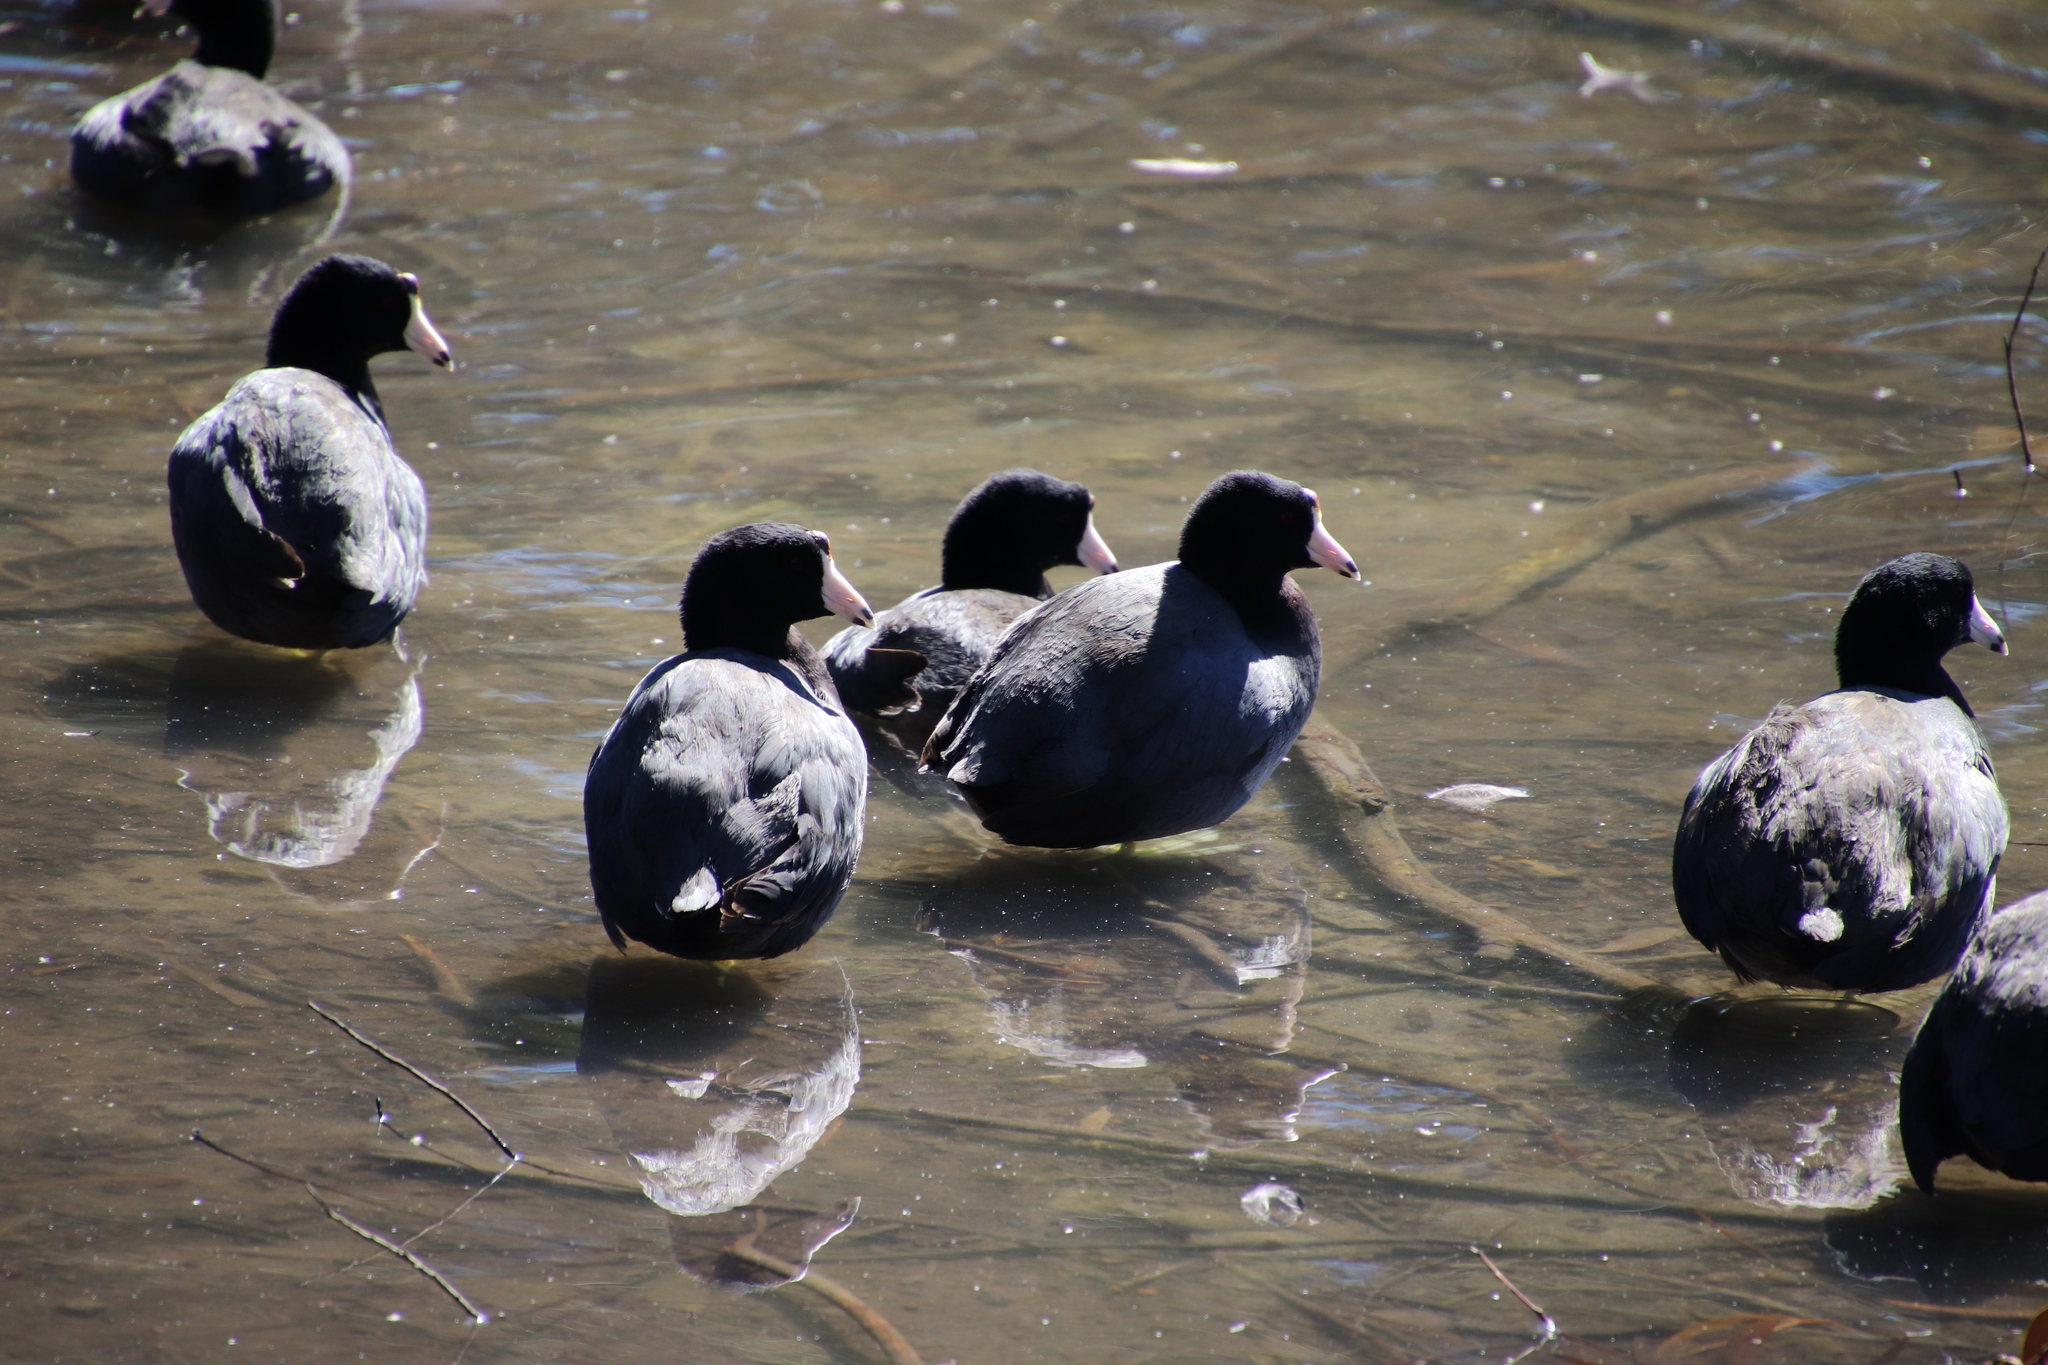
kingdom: Animalia
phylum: Chordata
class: Aves
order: Gruiformes
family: Rallidae
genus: Fulica
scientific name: Fulica americana
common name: American coot
